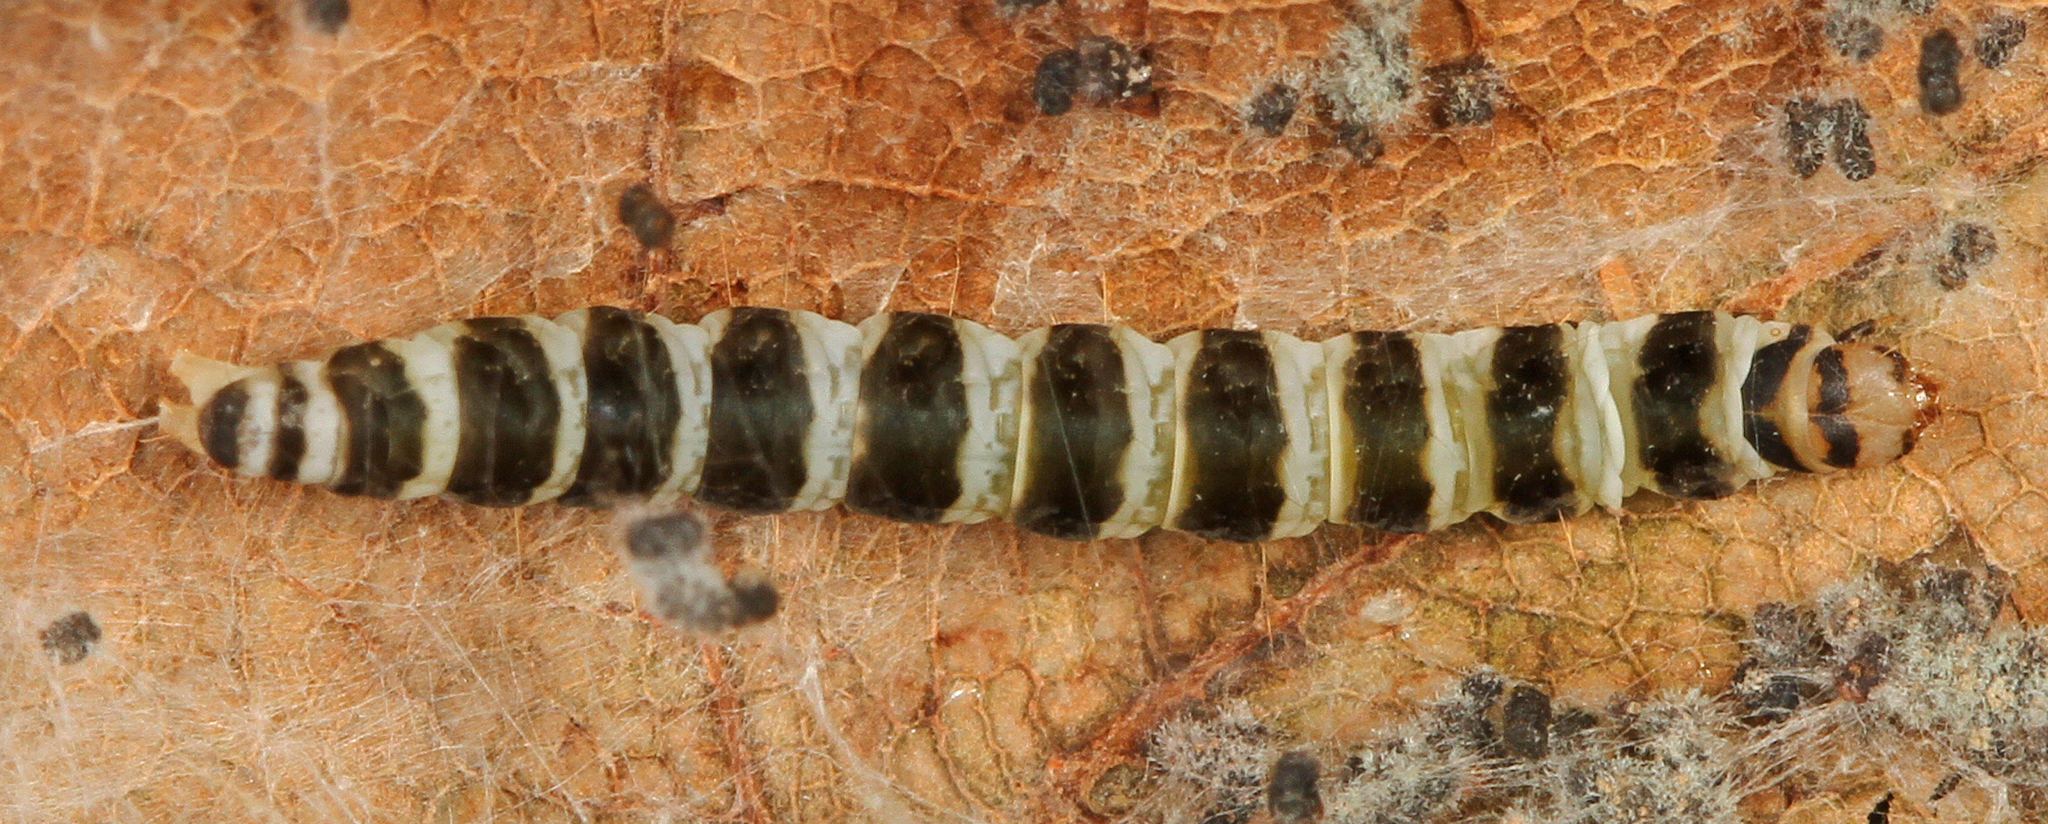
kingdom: Animalia
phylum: Arthropoda
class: Insecta
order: Lepidoptera
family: Gelechiidae
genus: Fascista
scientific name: Fascista cercerisella
